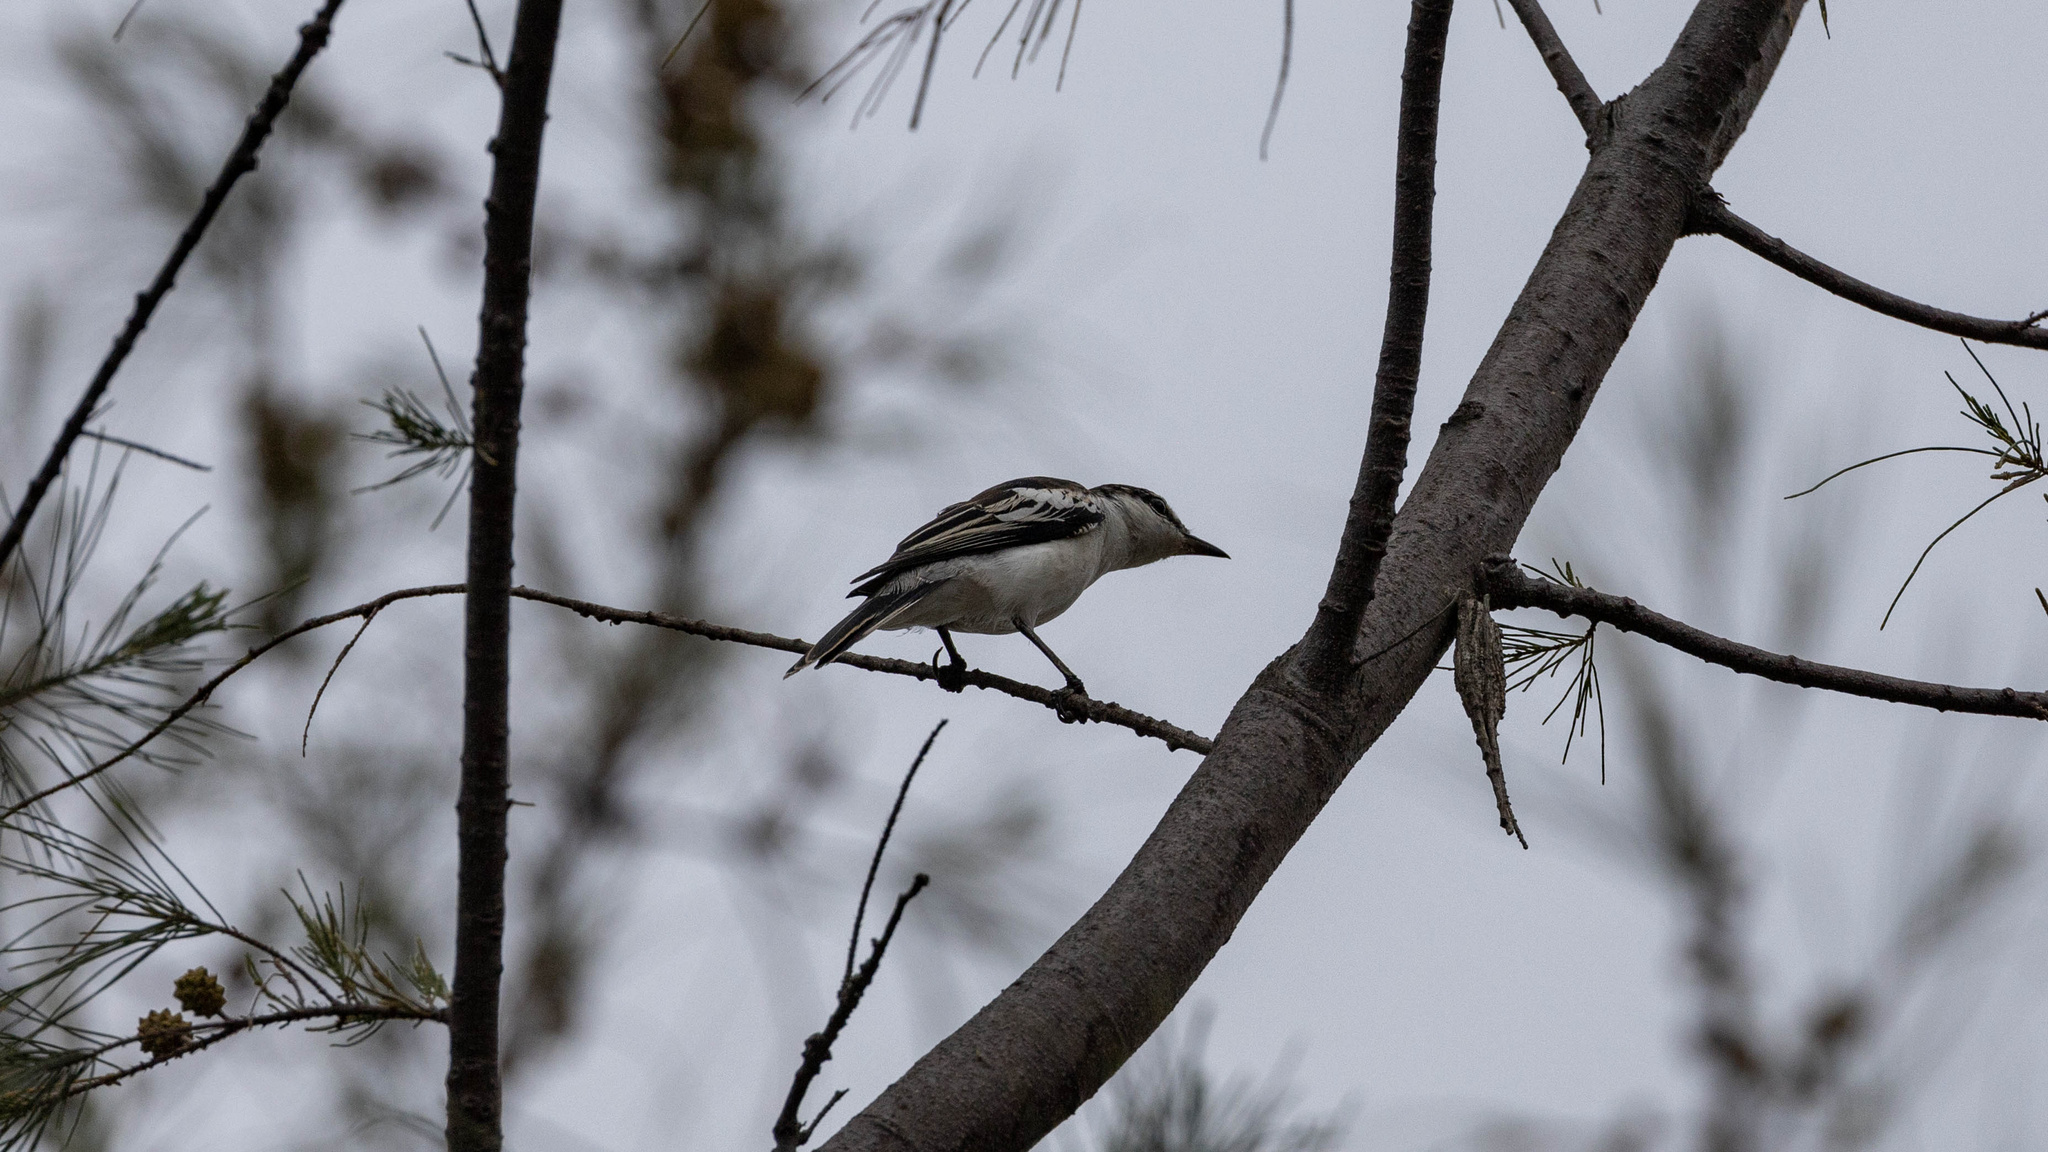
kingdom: Animalia
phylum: Chordata
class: Aves
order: Passeriformes
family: Campephagidae
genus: Lalage
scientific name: Lalage nigra
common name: Pied triller
